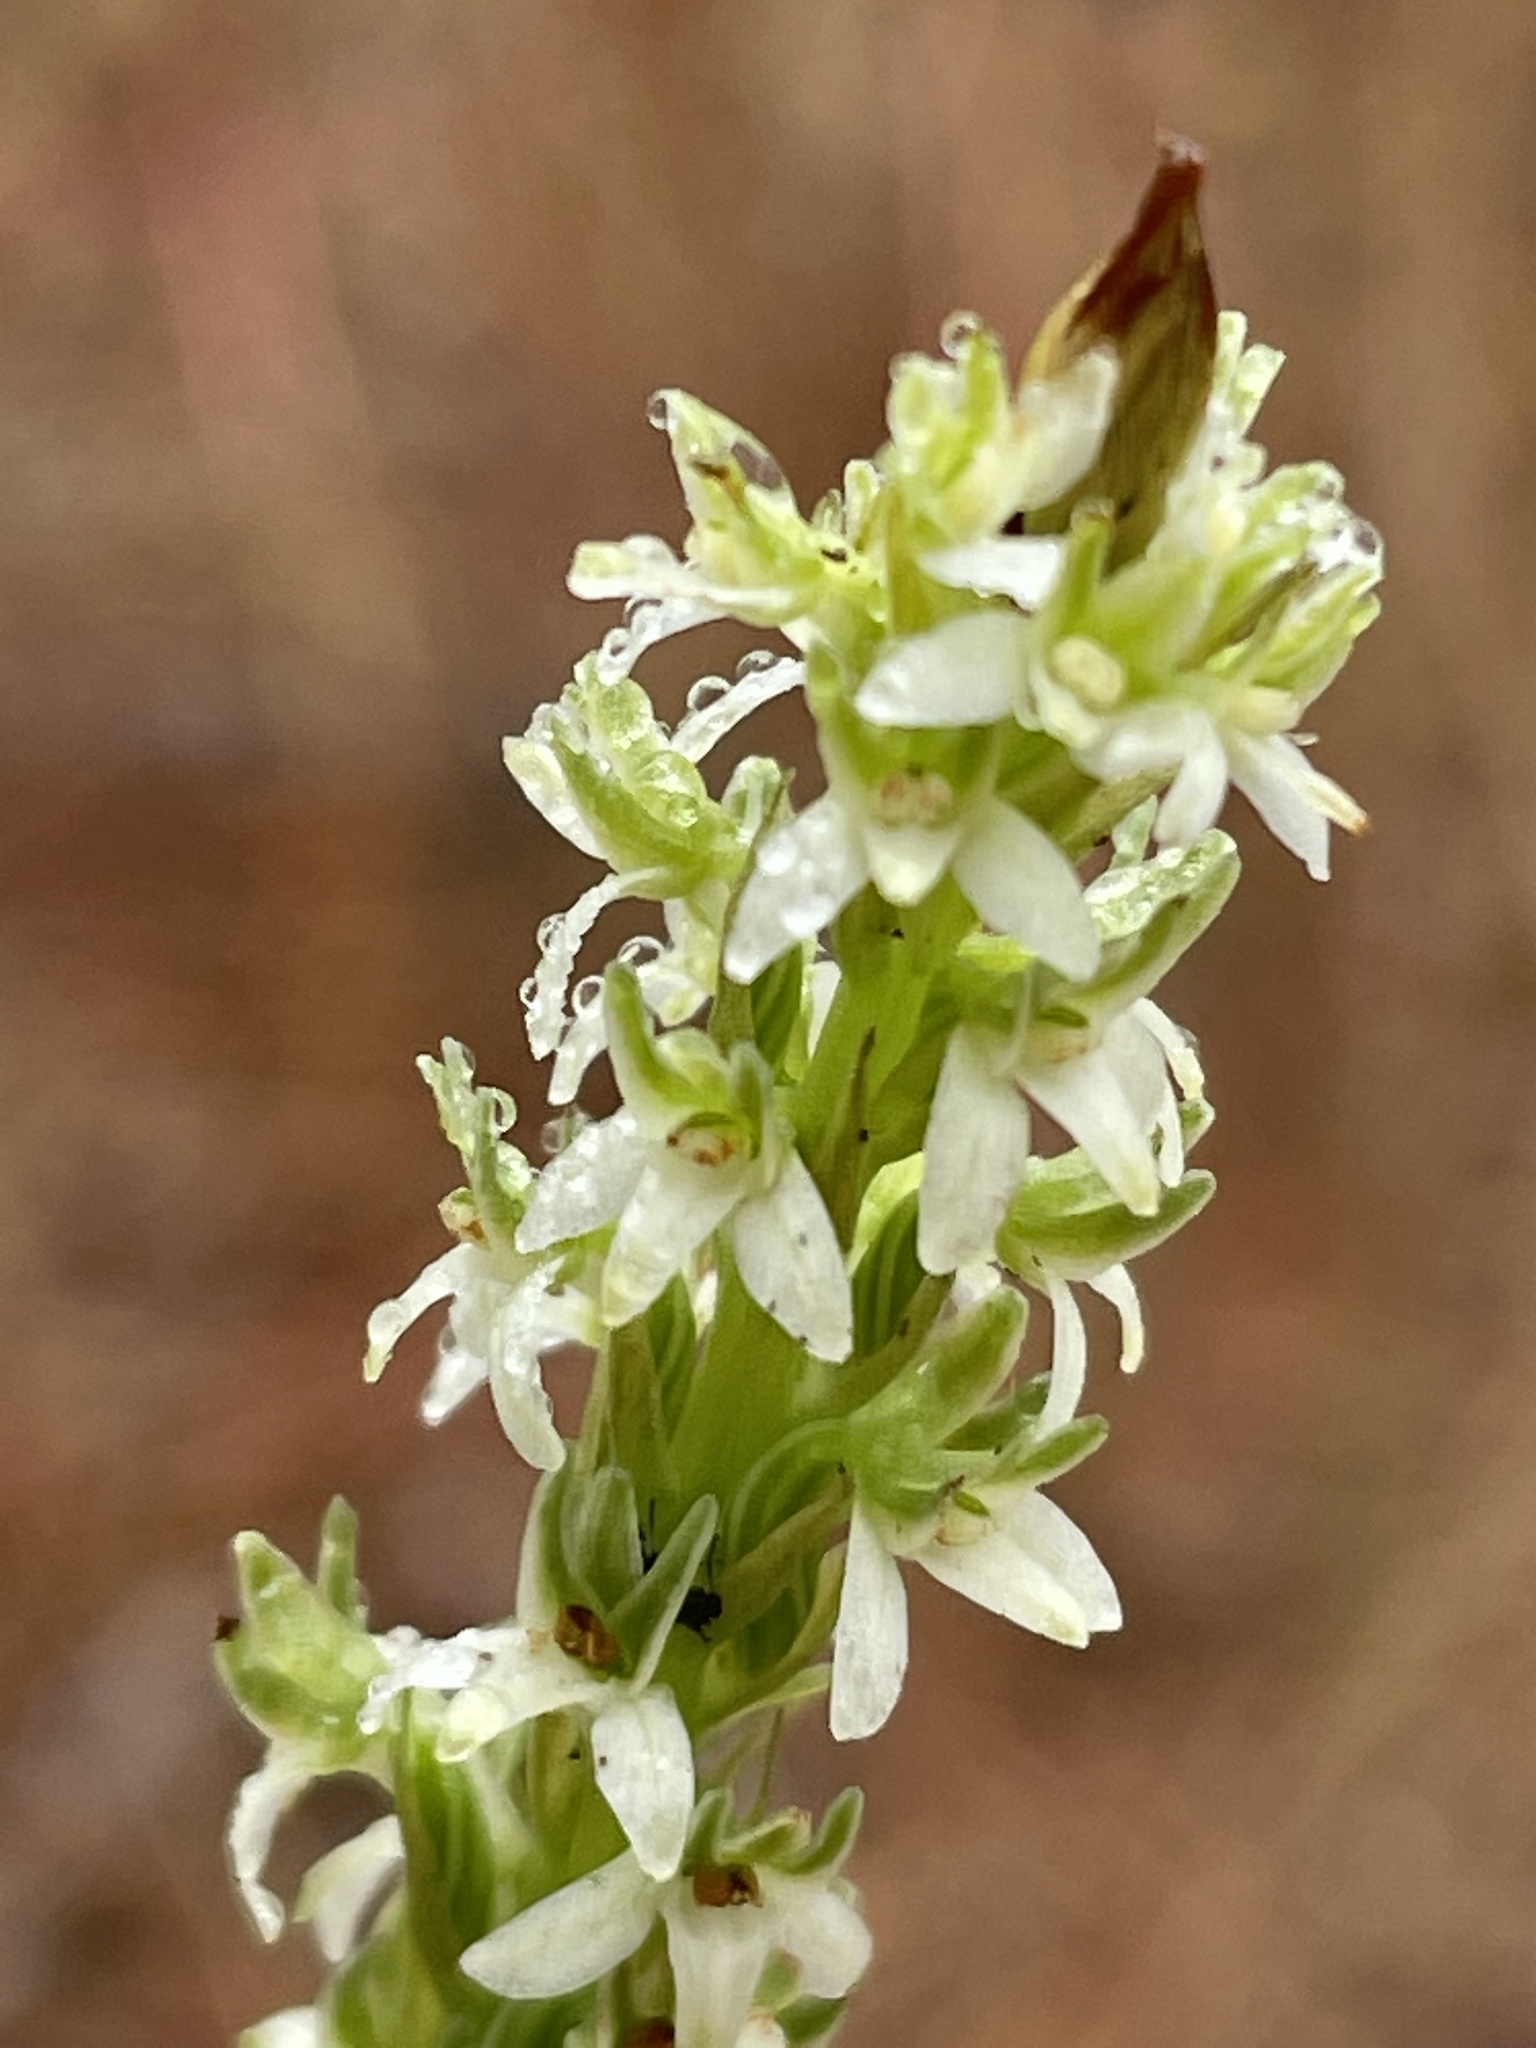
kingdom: Plantae
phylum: Tracheophyta
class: Liliopsida
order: Asparagales
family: Orchidaceae
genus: Platanthera
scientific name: Platanthera yadonii
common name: Yadon’s piperia
